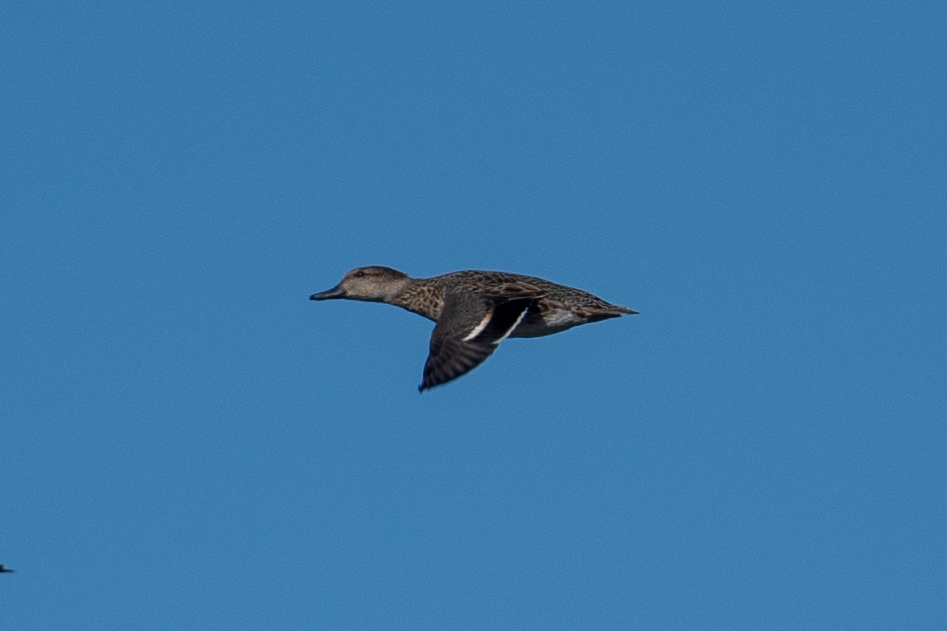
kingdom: Animalia
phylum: Chordata
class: Aves
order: Anseriformes
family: Anatidae
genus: Anas
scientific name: Anas crecca
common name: Eurasian teal
